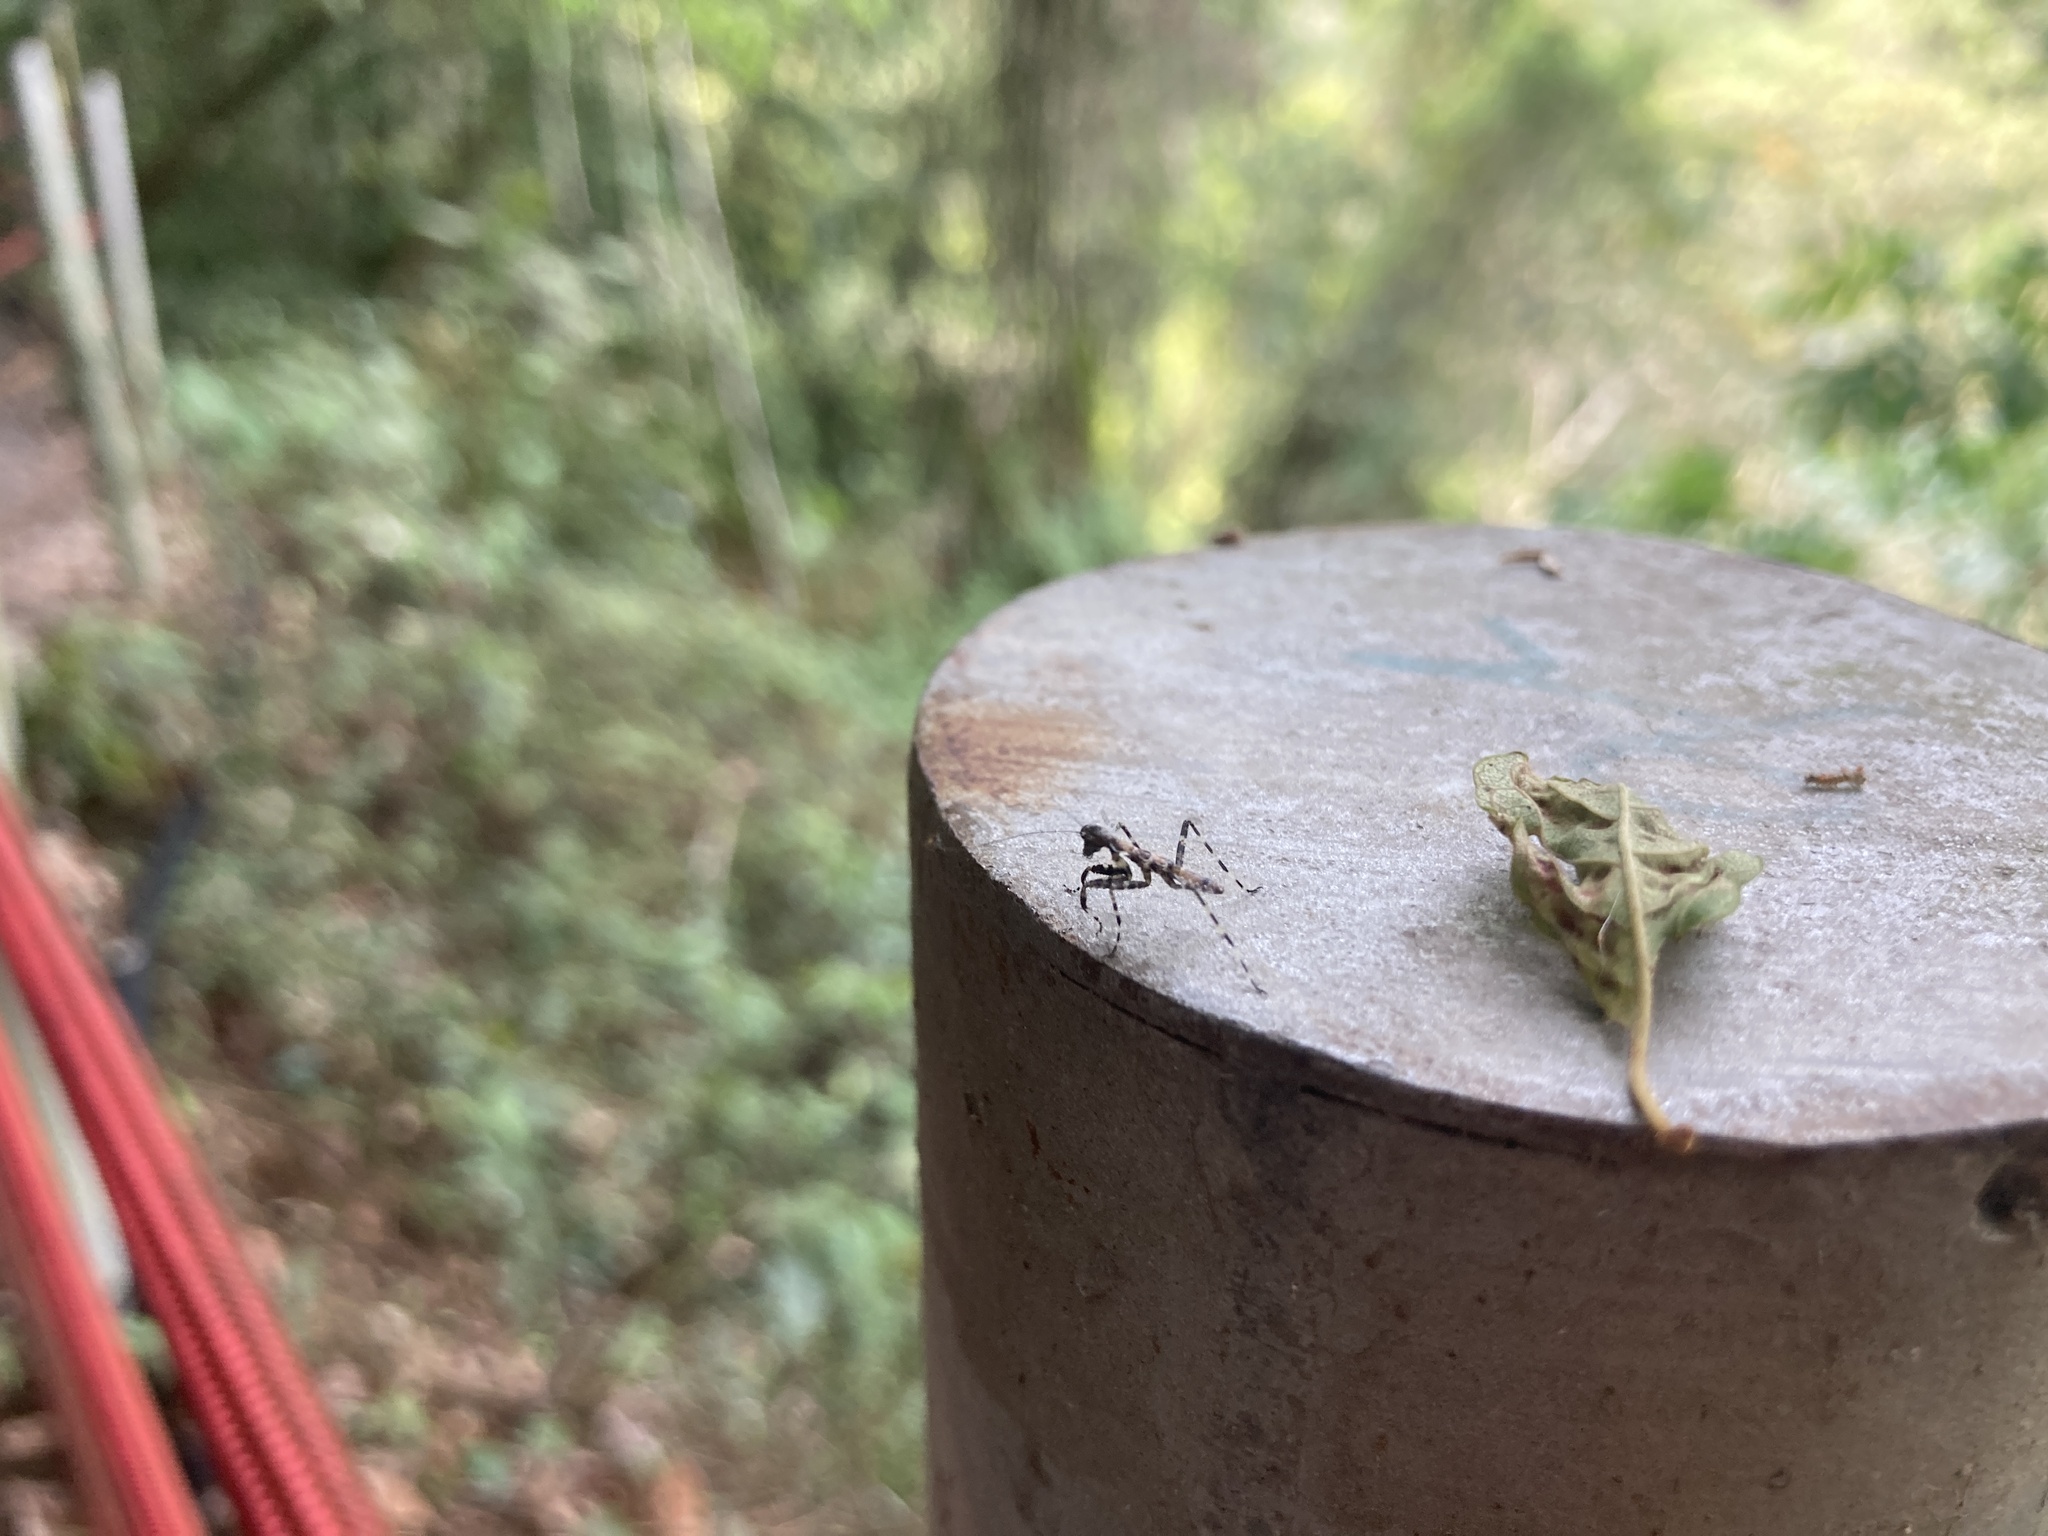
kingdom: Animalia
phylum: Arthropoda
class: Insecta
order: Mantodea
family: Gonypetidae
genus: Theopompa
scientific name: Theopompa ophthalmica
